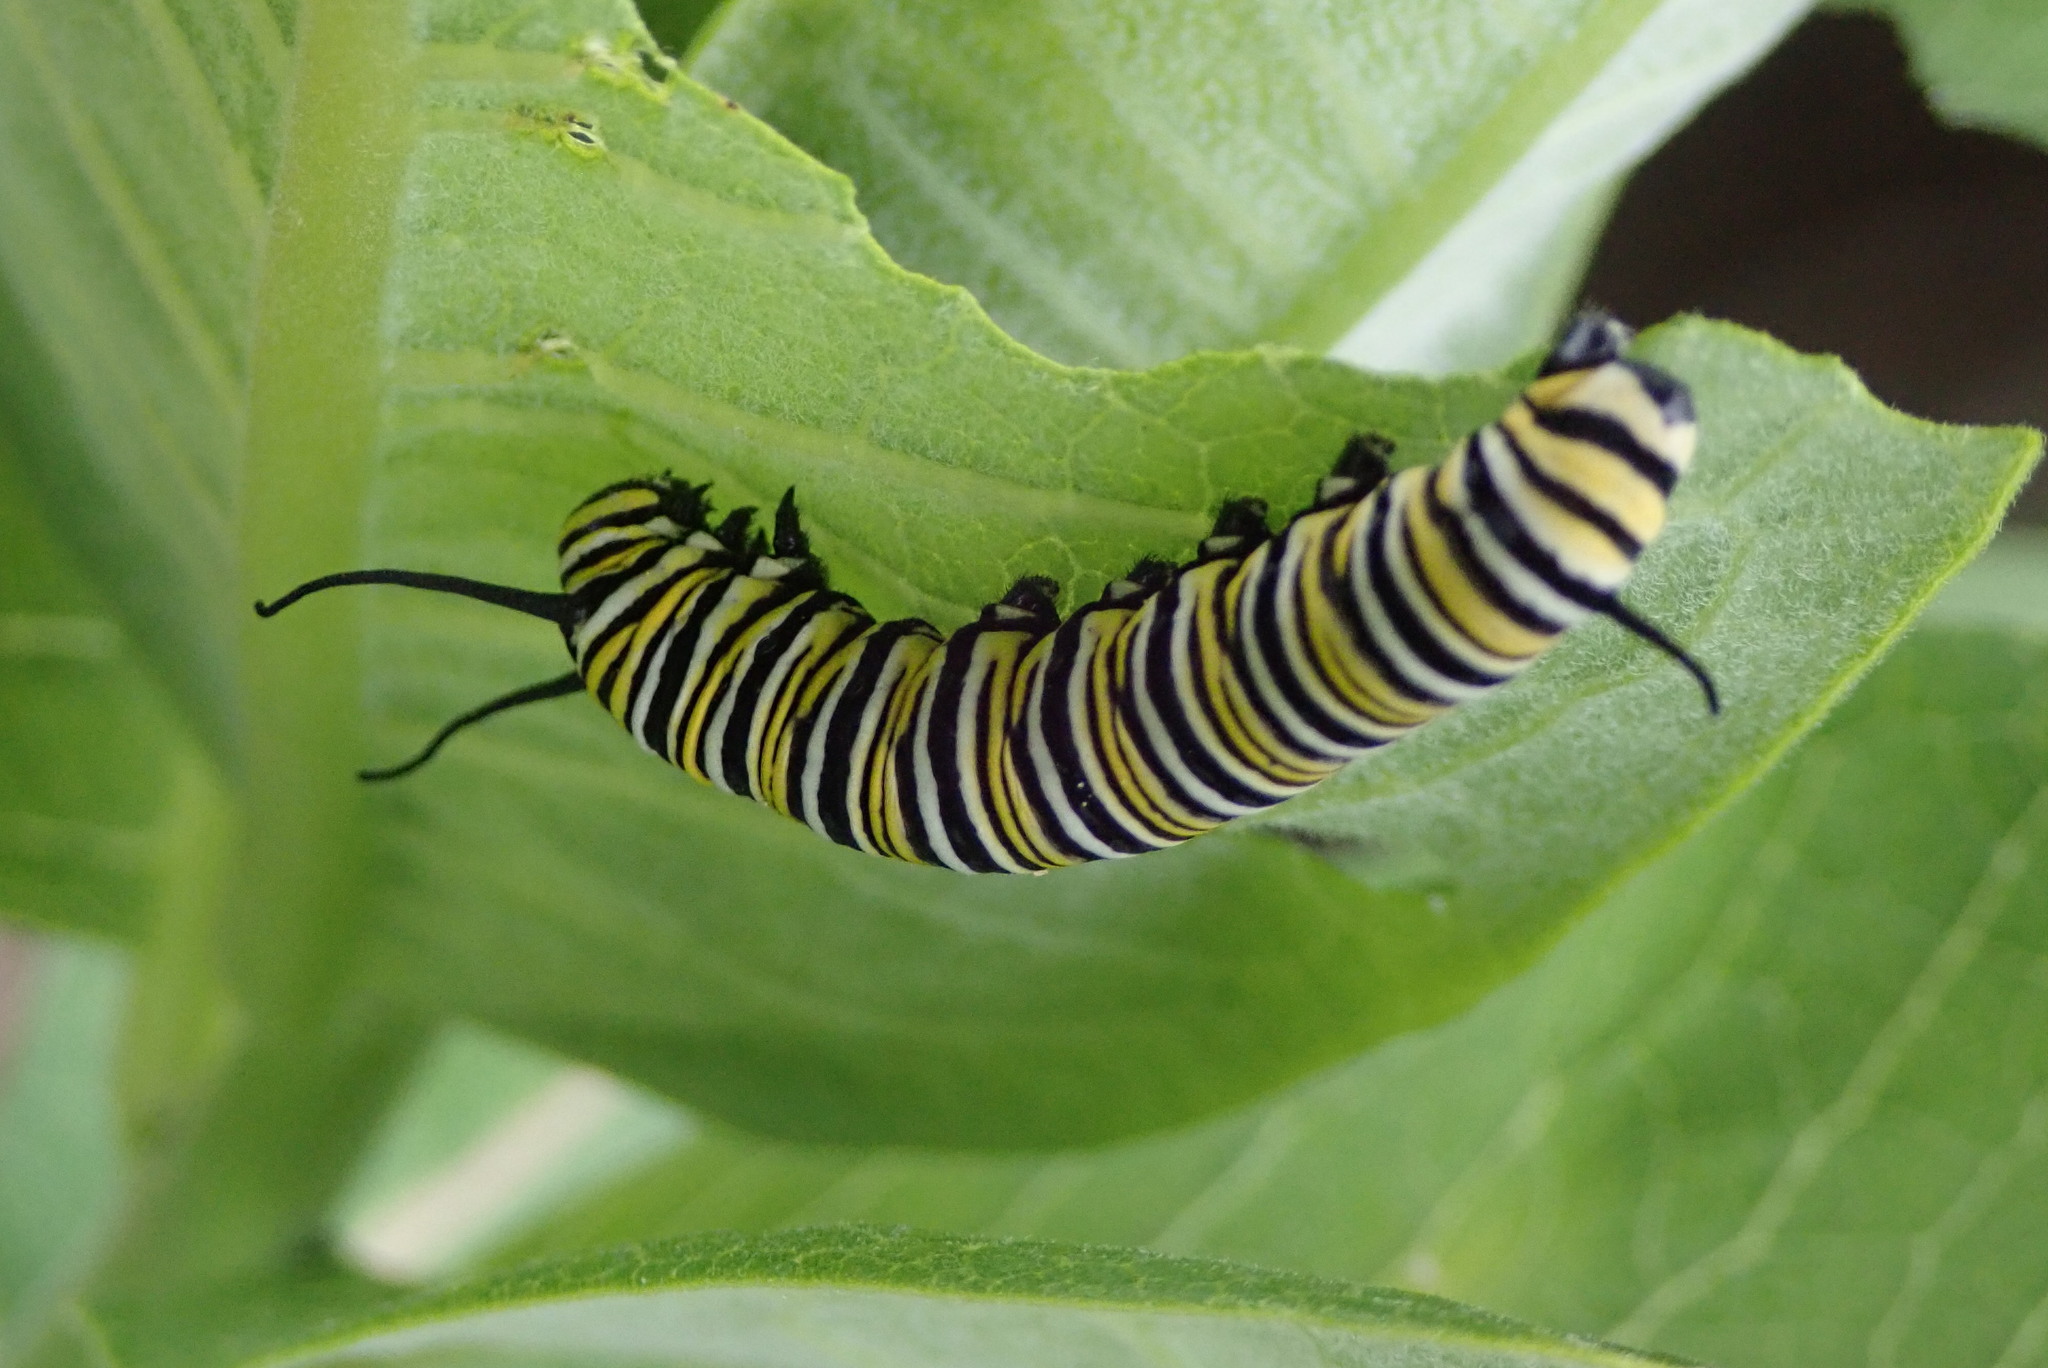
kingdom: Animalia
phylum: Arthropoda
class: Insecta
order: Lepidoptera
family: Nymphalidae
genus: Danaus
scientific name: Danaus plexippus
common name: Monarch
